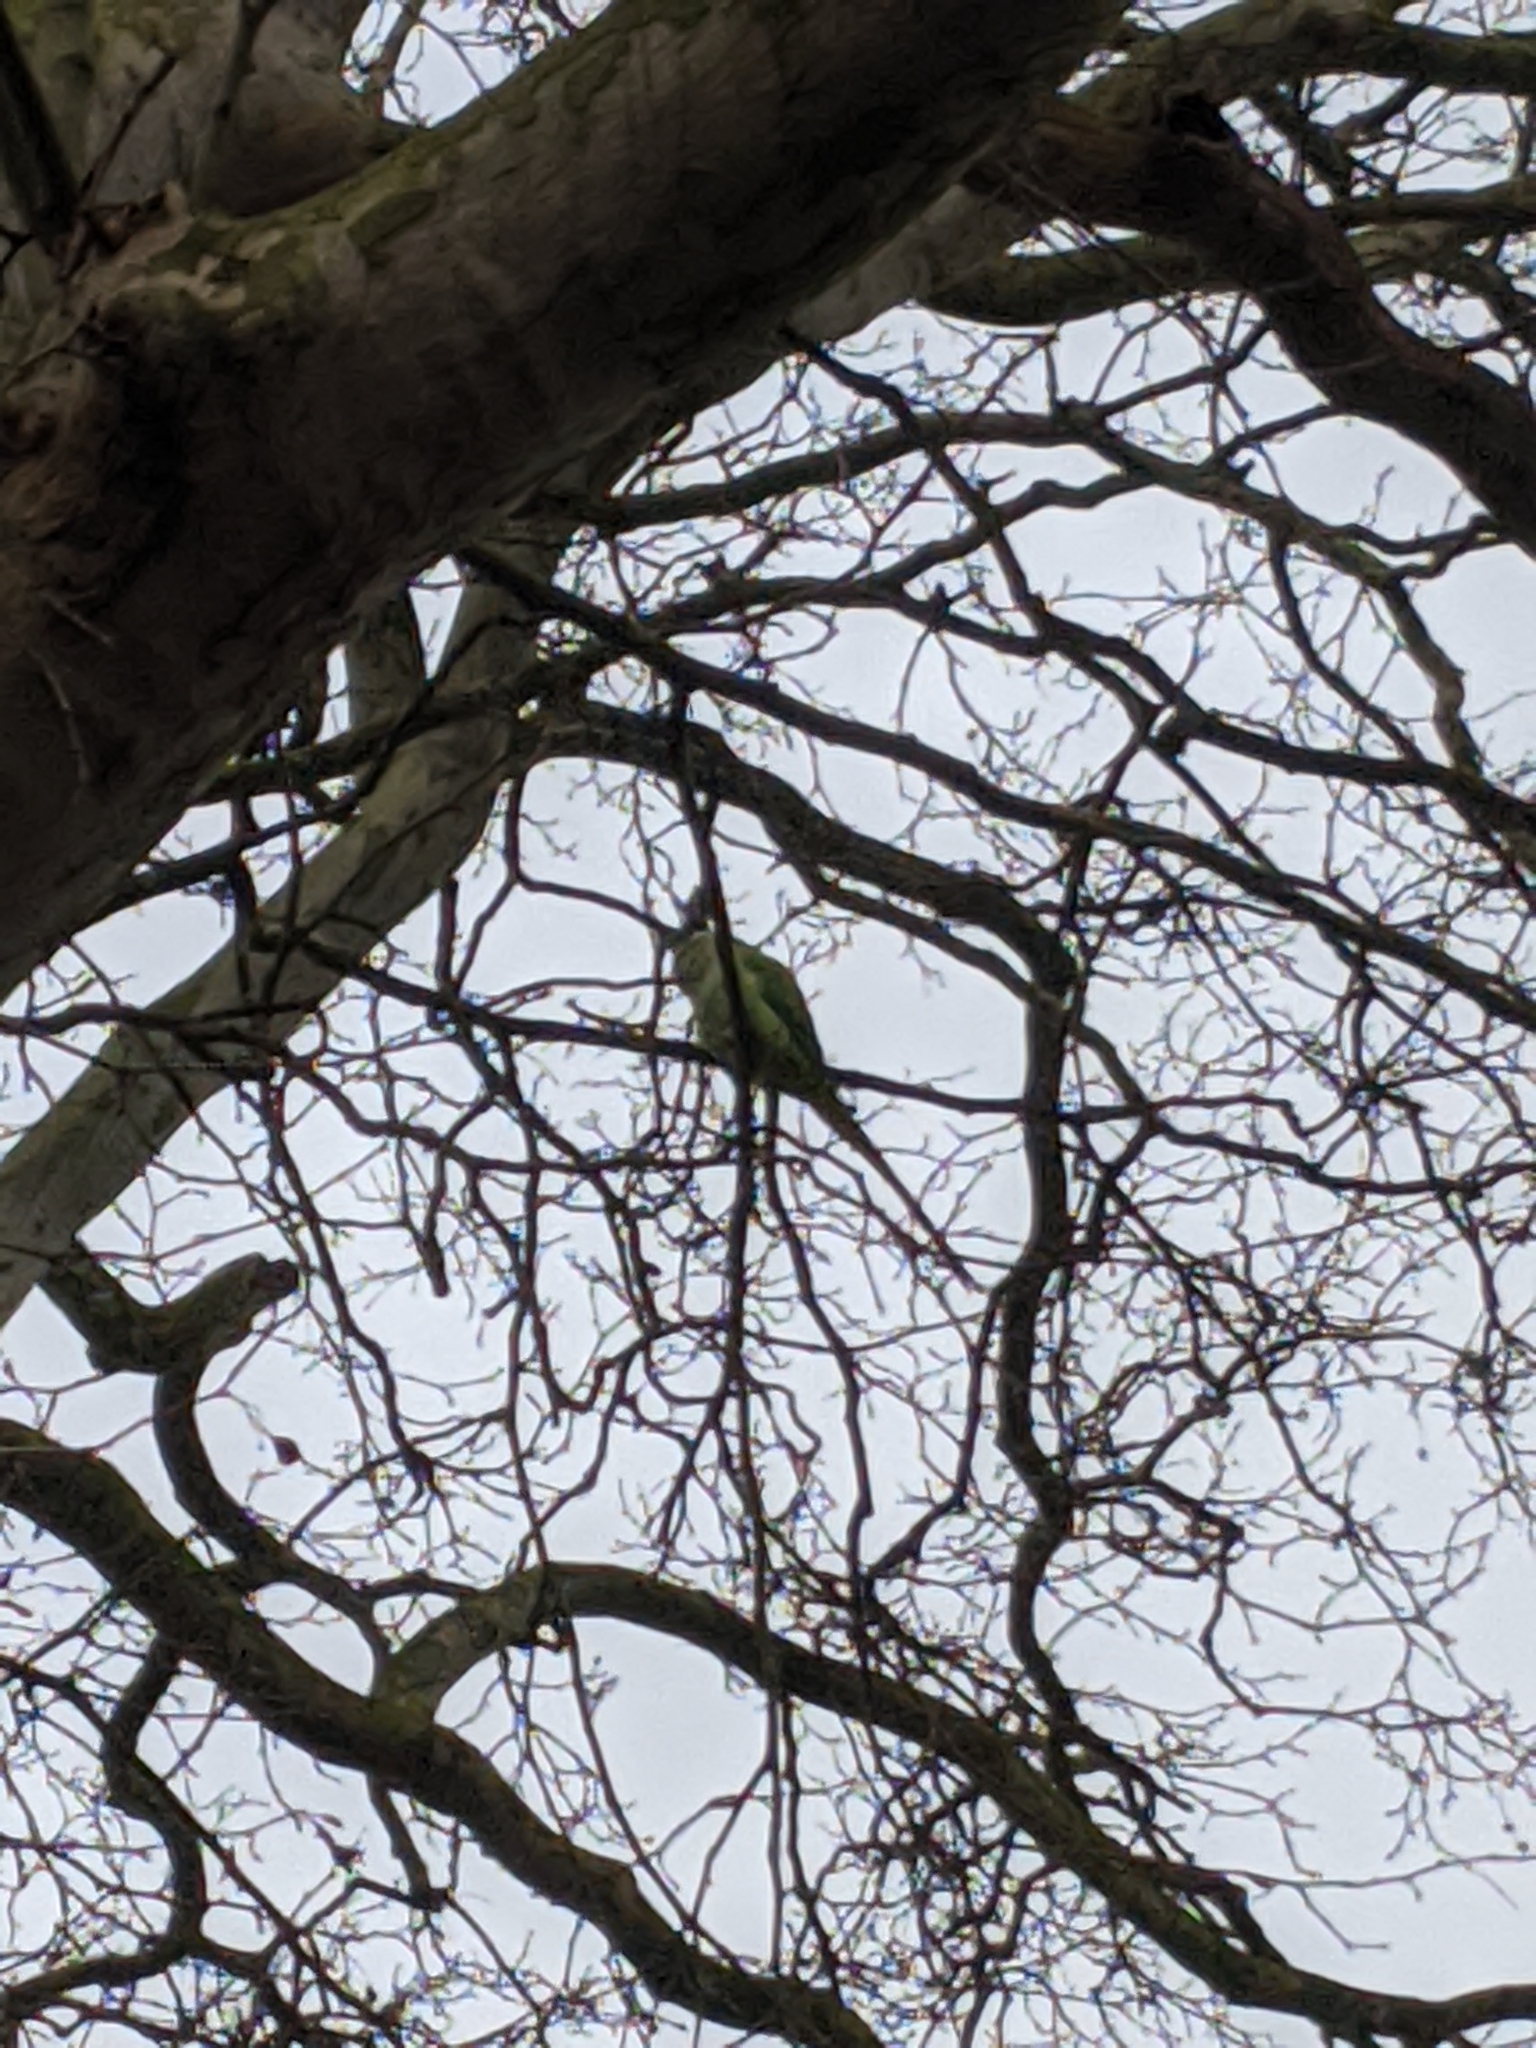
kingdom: Animalia
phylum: Chordata
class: Aves
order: Psittaciformes
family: Psittacidae
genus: Psittacula
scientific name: Psittacula krameri
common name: Rose-ringed parakeet
